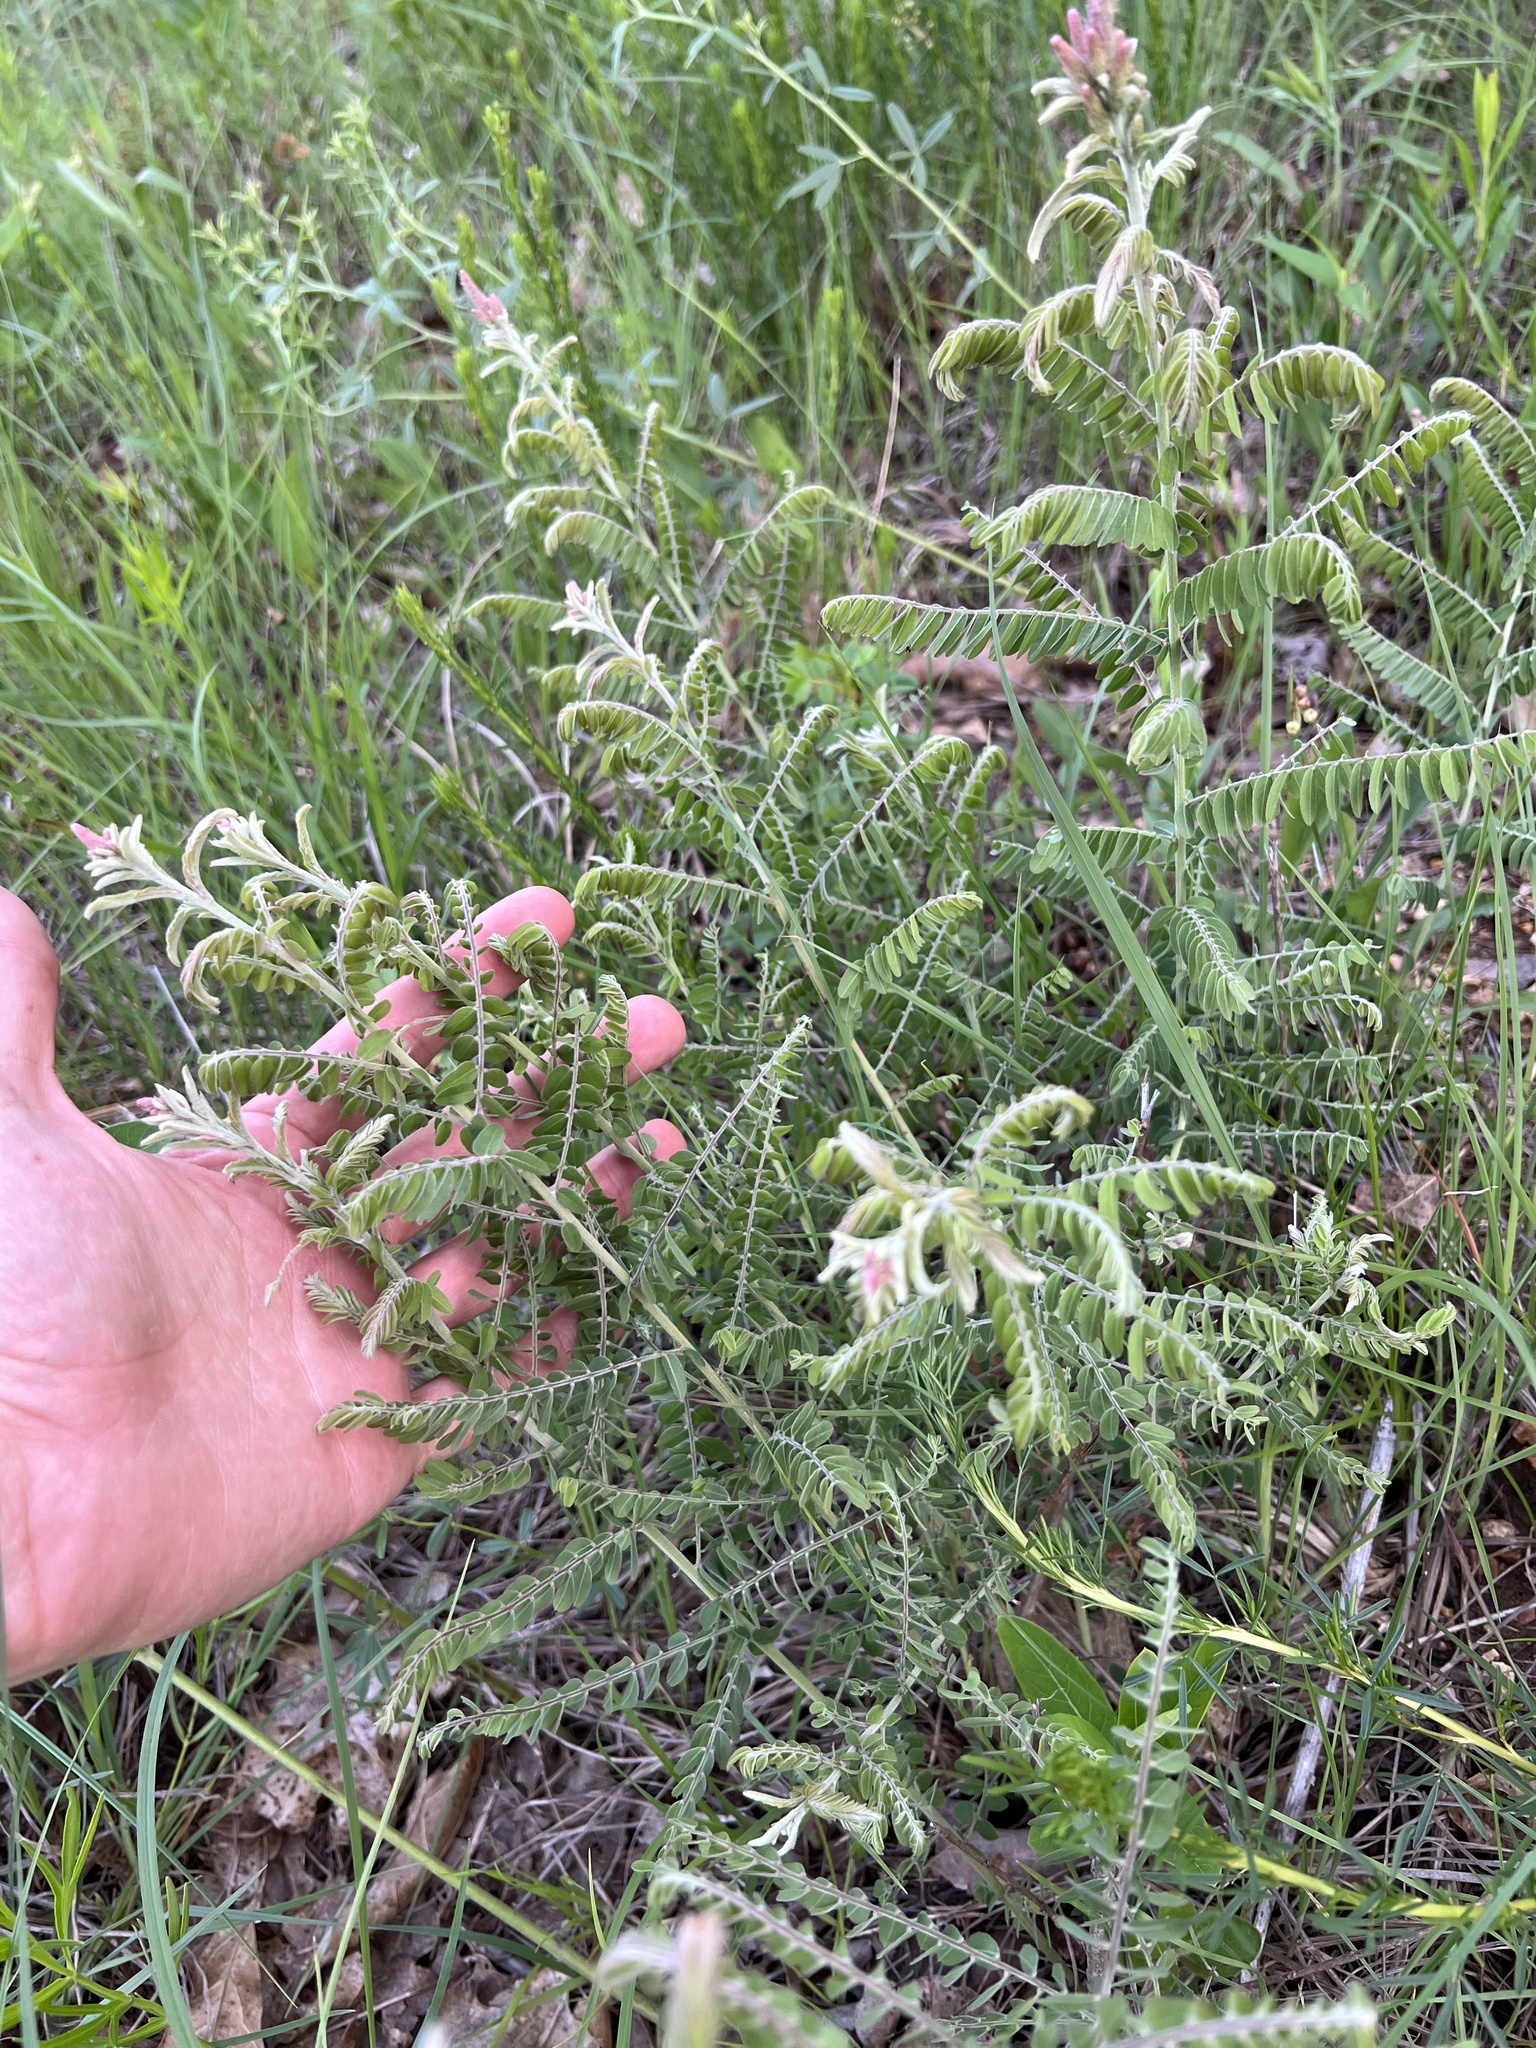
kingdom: Plantae
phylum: Tracheophyta
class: Magnoliopsida
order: Fabales
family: Fabaceae
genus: Amorpha
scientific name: Amorpha canescens
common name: Leadplant
